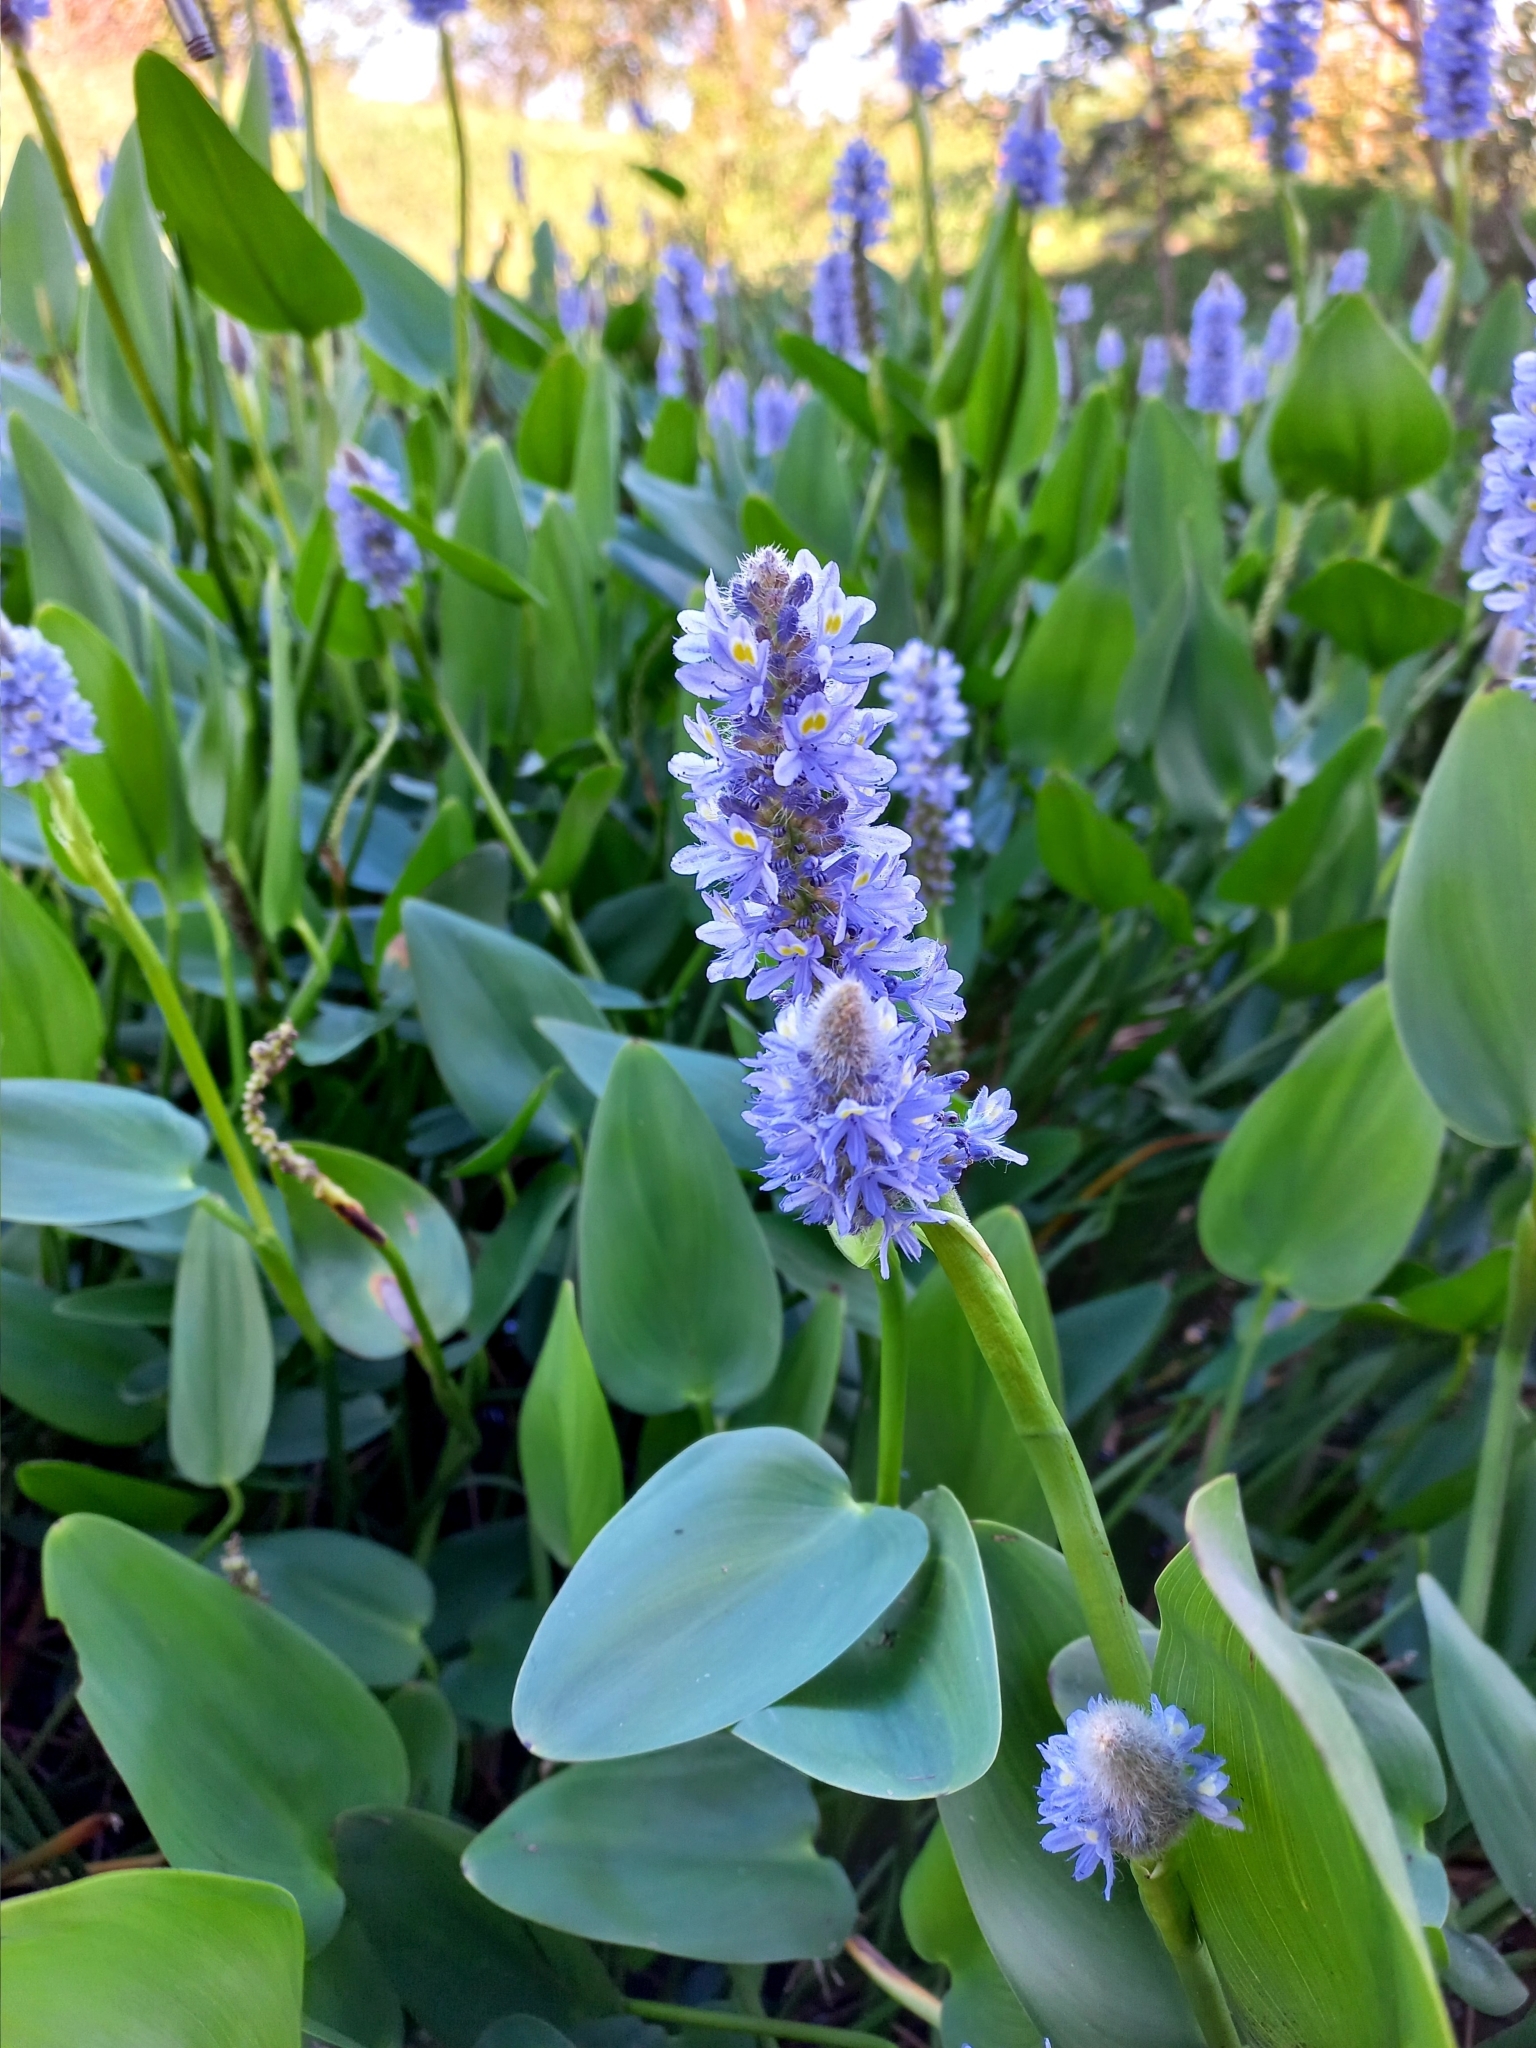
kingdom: Plantae
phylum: Tracheophyta
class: Liliopsida
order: Commelinales
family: Pontederiaceae
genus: Pontederia
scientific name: Pontederia cordata
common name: Pickerelweed
